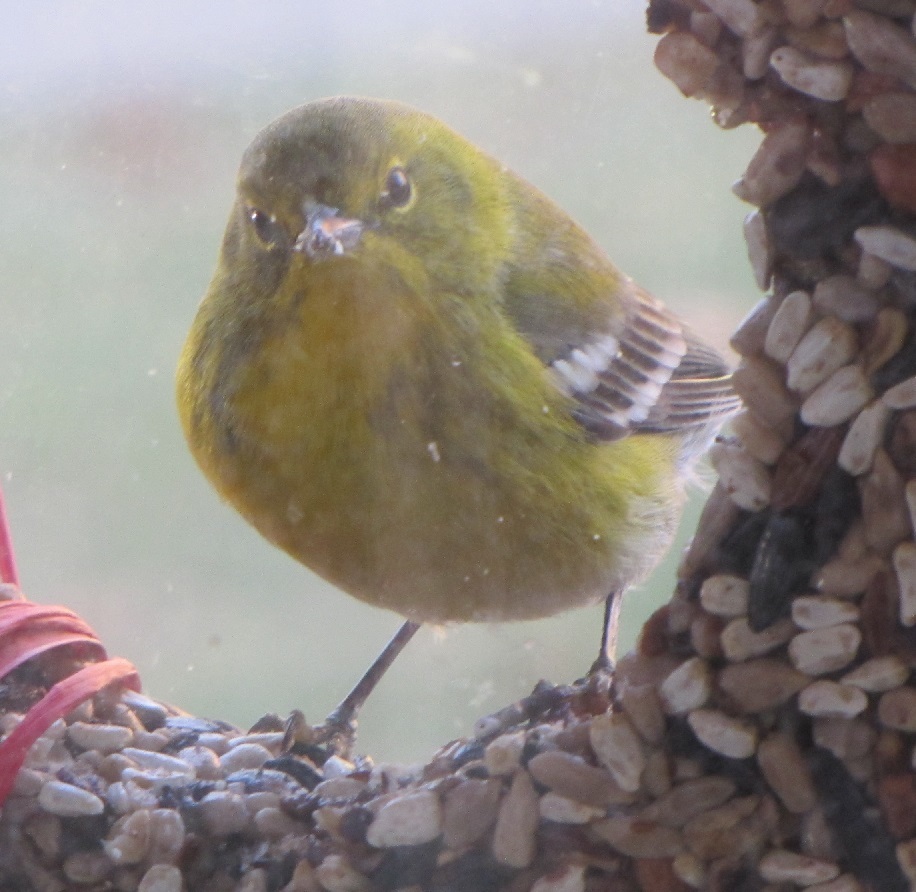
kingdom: Animalia
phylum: Chordata
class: Aves
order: Passeriformes
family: Parulidae
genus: Setophaga
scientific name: Setophaga pinus
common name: Pine warbler
